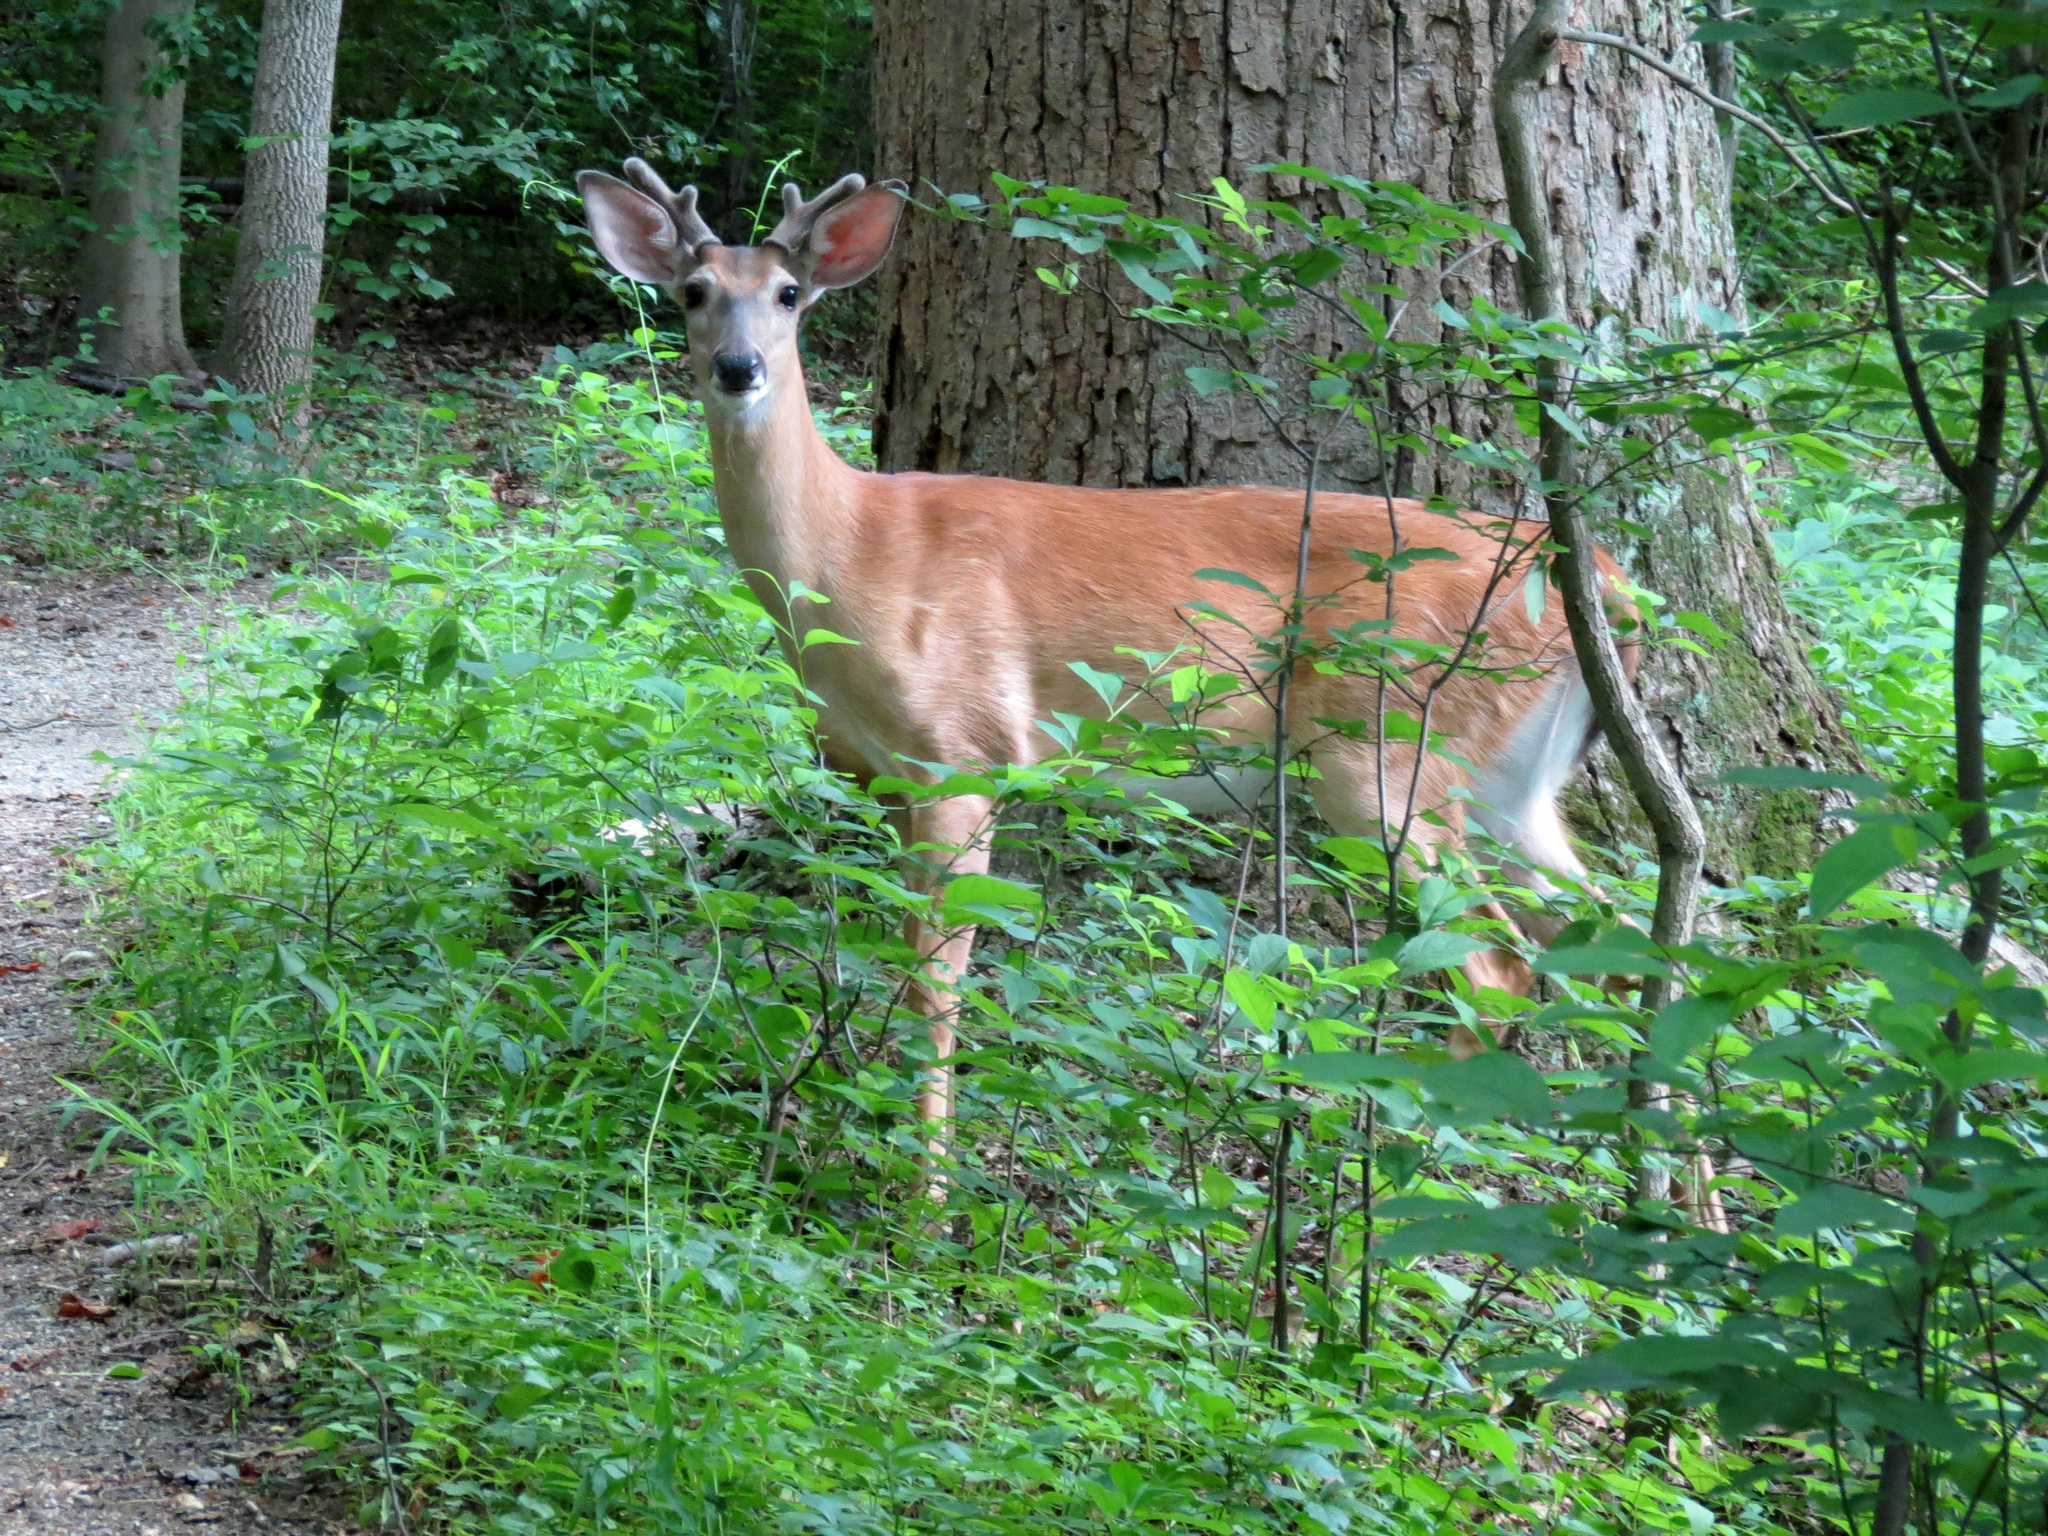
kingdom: Animalia
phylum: Chordata
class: Mammalia
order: Artiodactyla
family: Cervidae
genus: Odocoileus
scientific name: Odocoileus virginianus
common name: White-tailed deer
